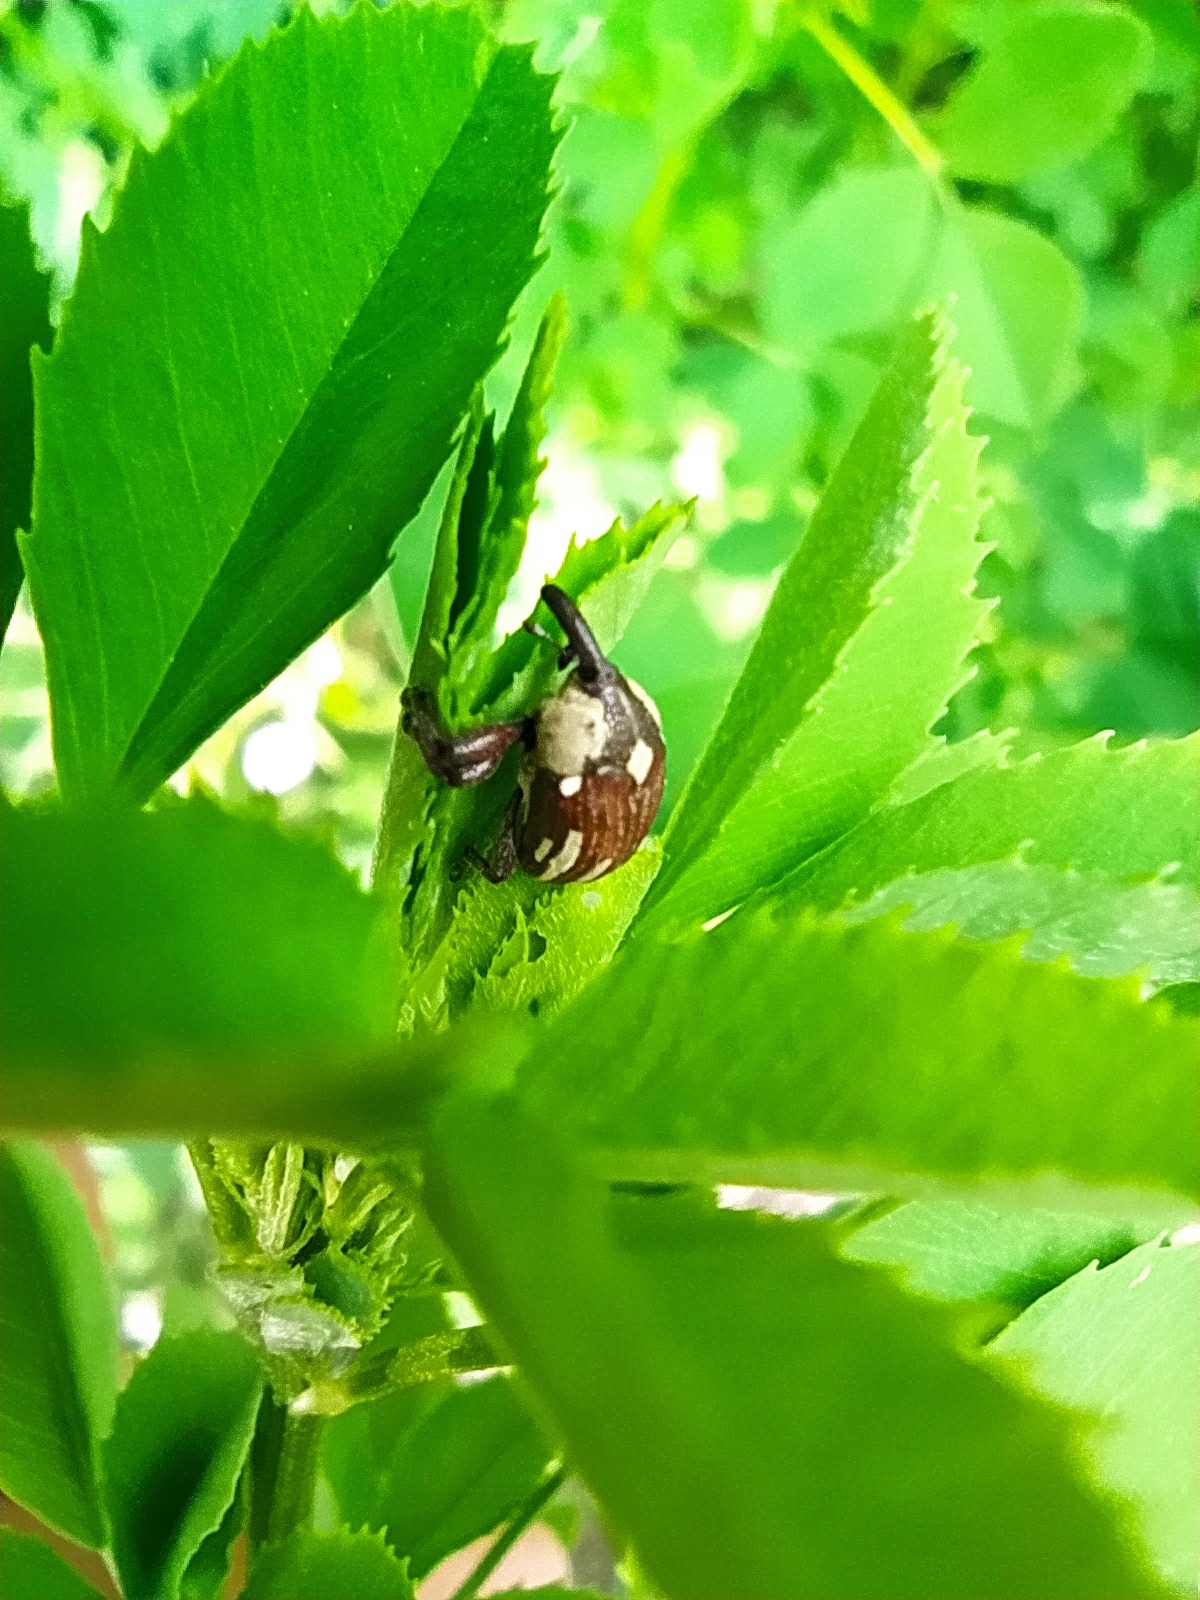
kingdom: Animalia
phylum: Arthropoda
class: Insecta
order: Coleoptera
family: Curculionidae
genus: Sternuchopsis
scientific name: Sternuchopsis
